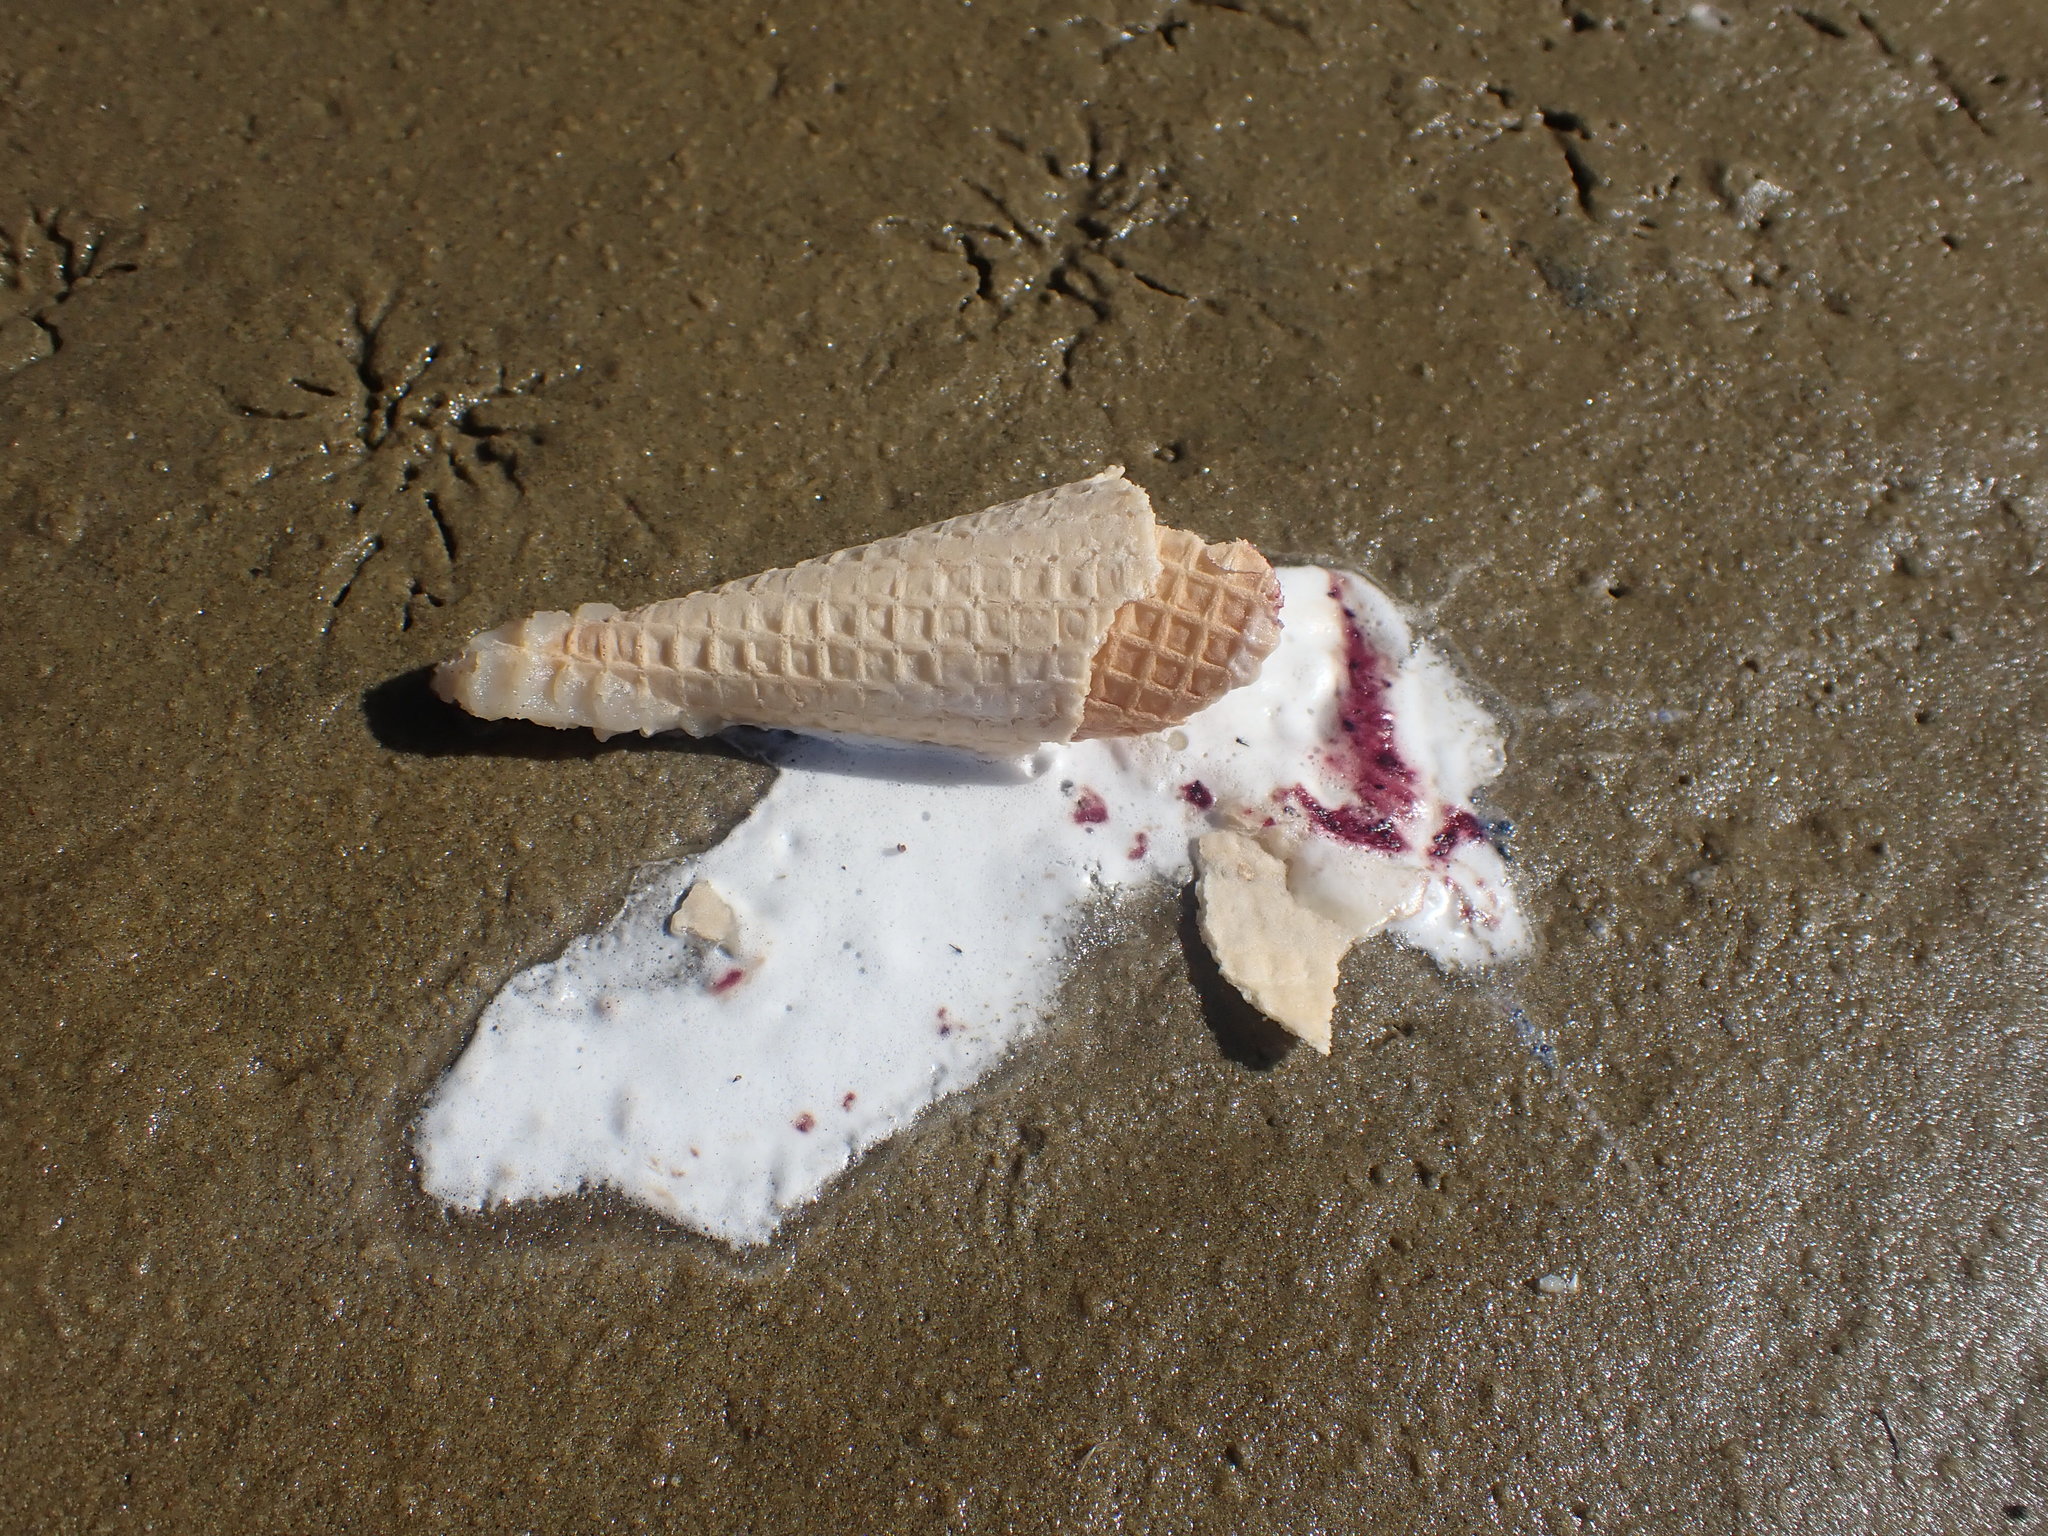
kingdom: Animalia
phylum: Mollusca
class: Bivalvia
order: Cardiida
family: Tellinidae
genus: Macomona
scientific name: Macomona liliana
